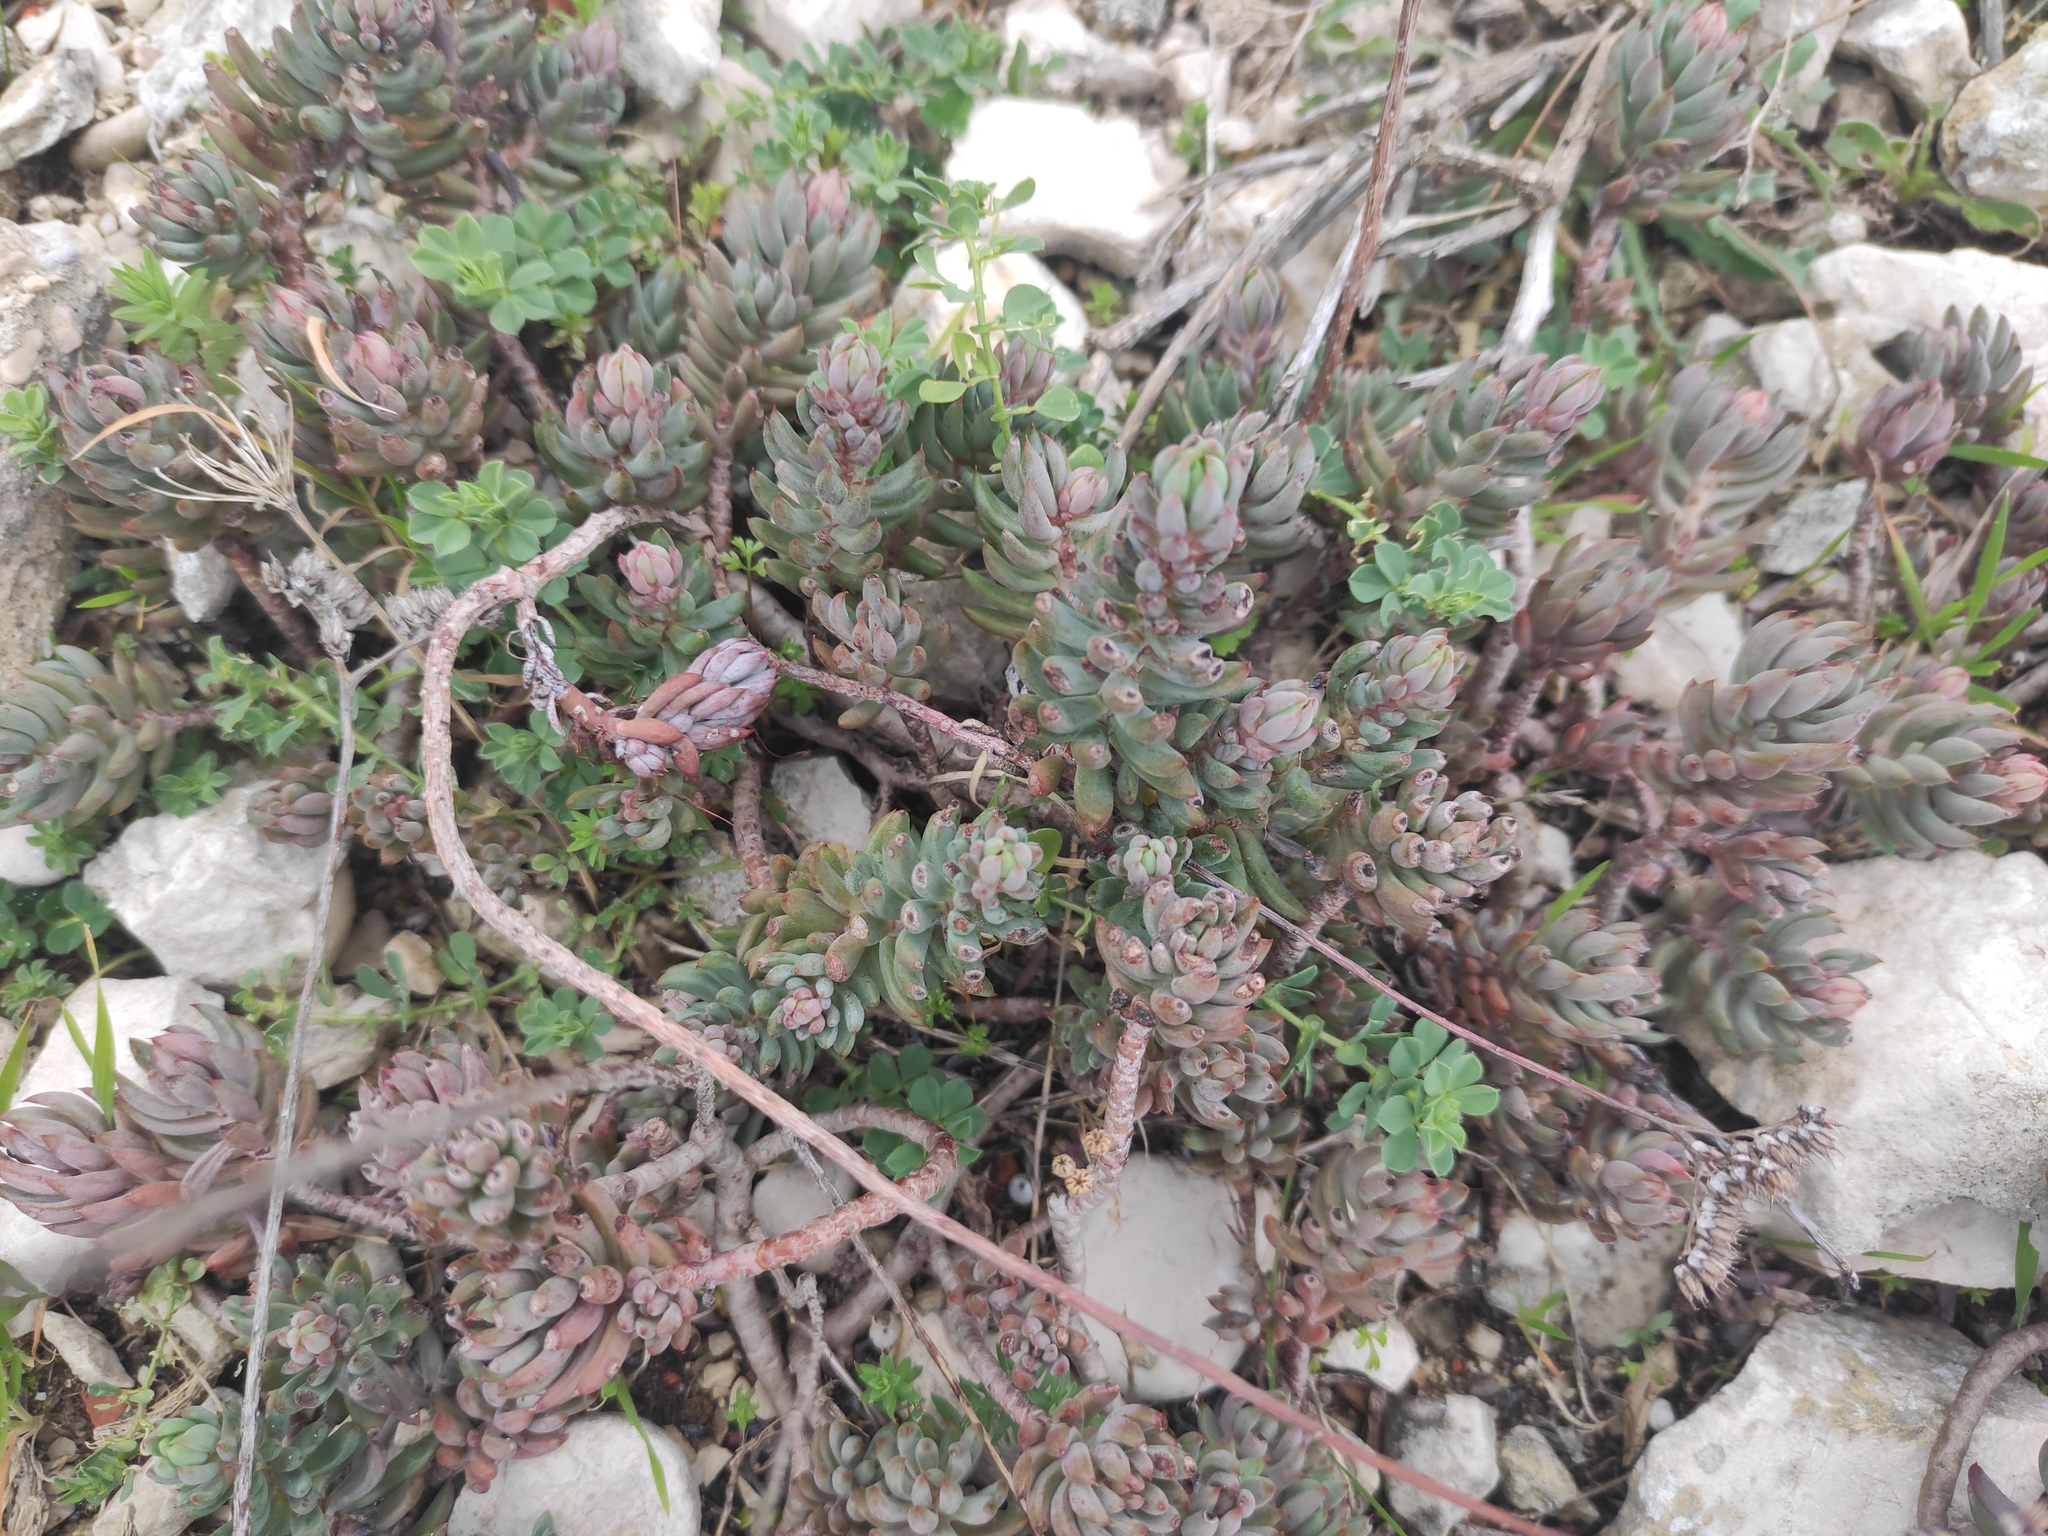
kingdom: Plantae
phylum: Tracheophyta
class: Magnoliopsida
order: Saxifragales
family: Crassulaceae
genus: Petrosedum
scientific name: Petrosedum sediforme
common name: Pale stonecrop
